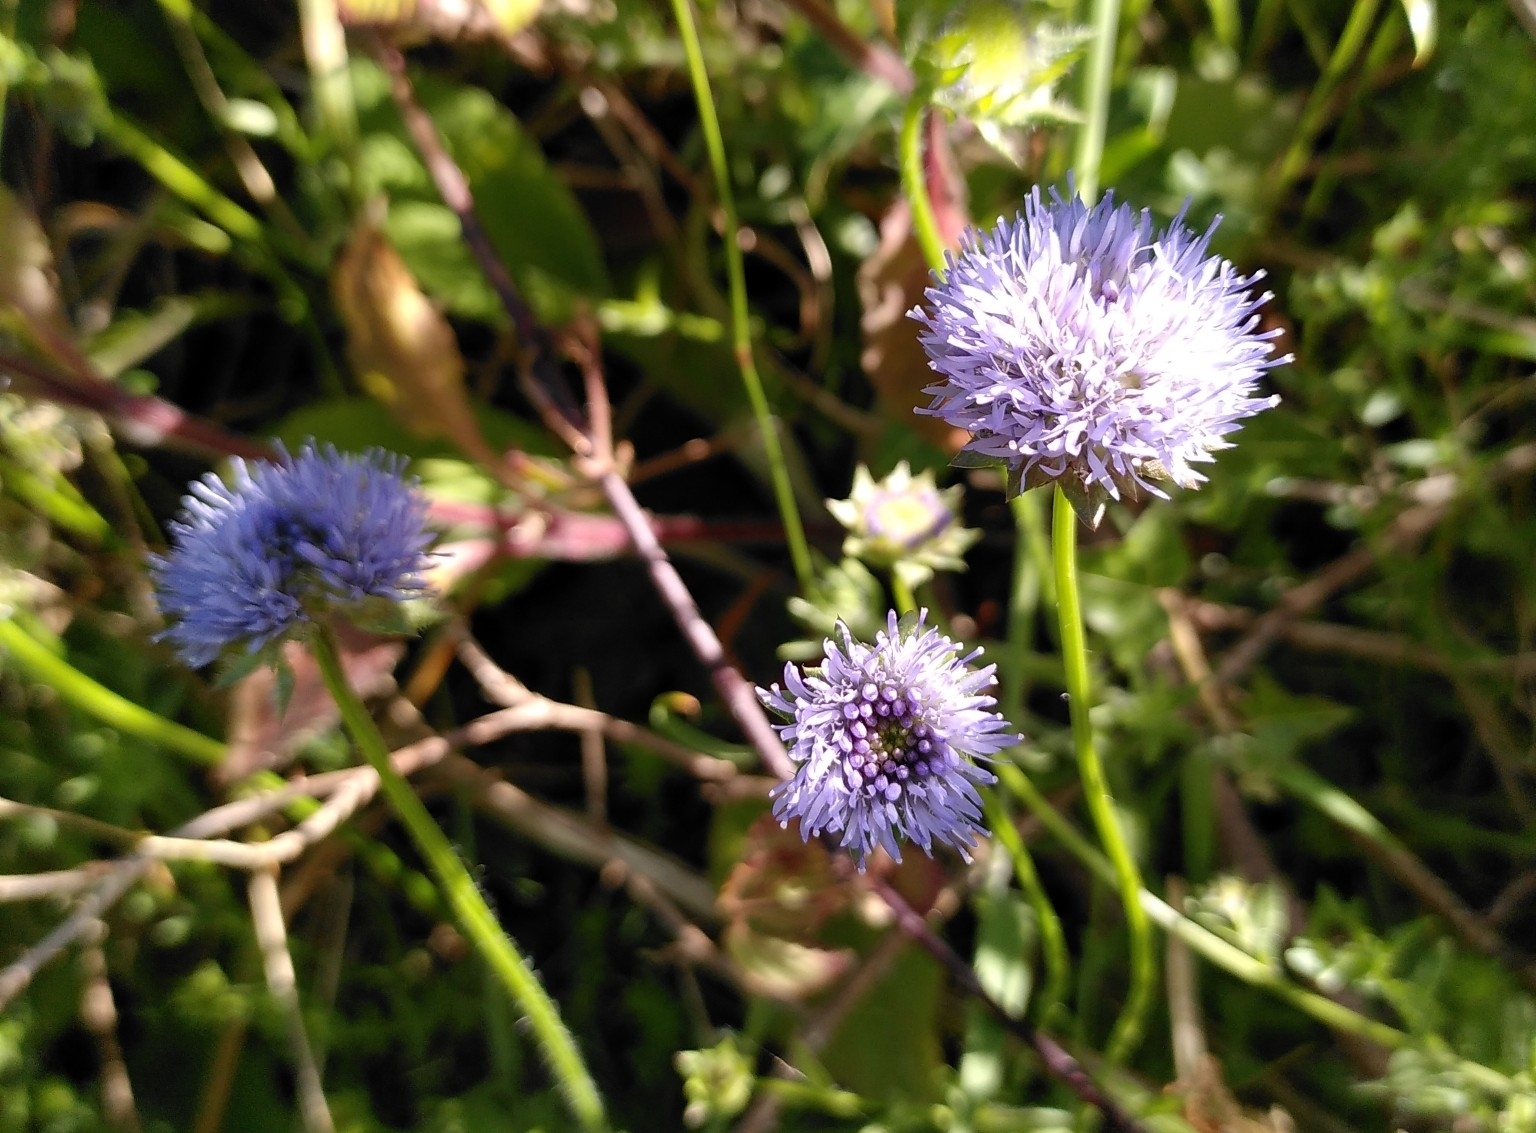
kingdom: Plantae
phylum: Tracheophyta
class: Magnoliopsida
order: Asterales
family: Campanulaceae
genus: Jasione
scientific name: Jasione montana
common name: Sheep's-bit
